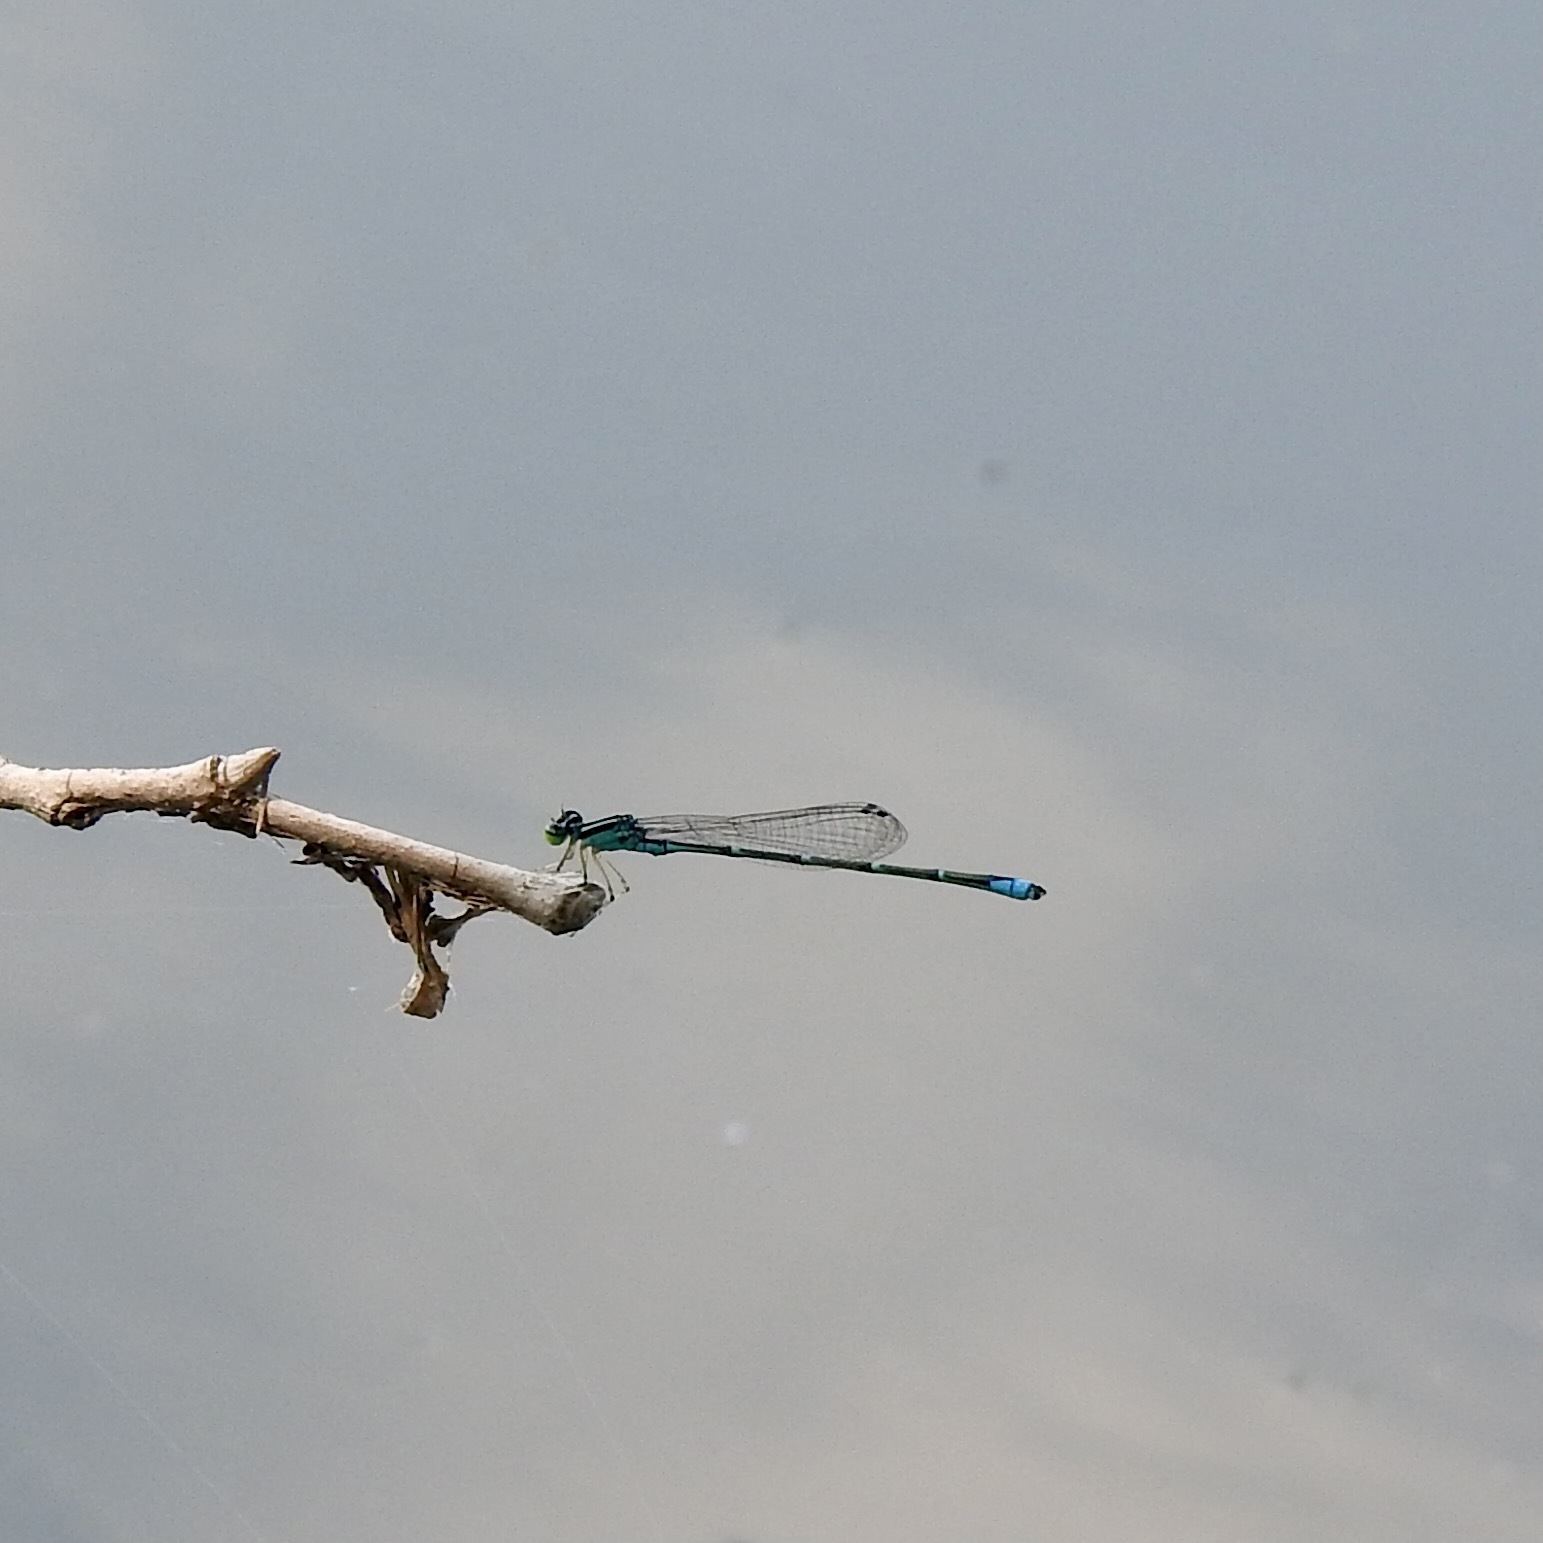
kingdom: Animalia
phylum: Arthropoda
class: Insecta
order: Odonata
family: Coenagrionidae
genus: Enallagma
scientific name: Enallagma exsulans
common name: Stream bluet
